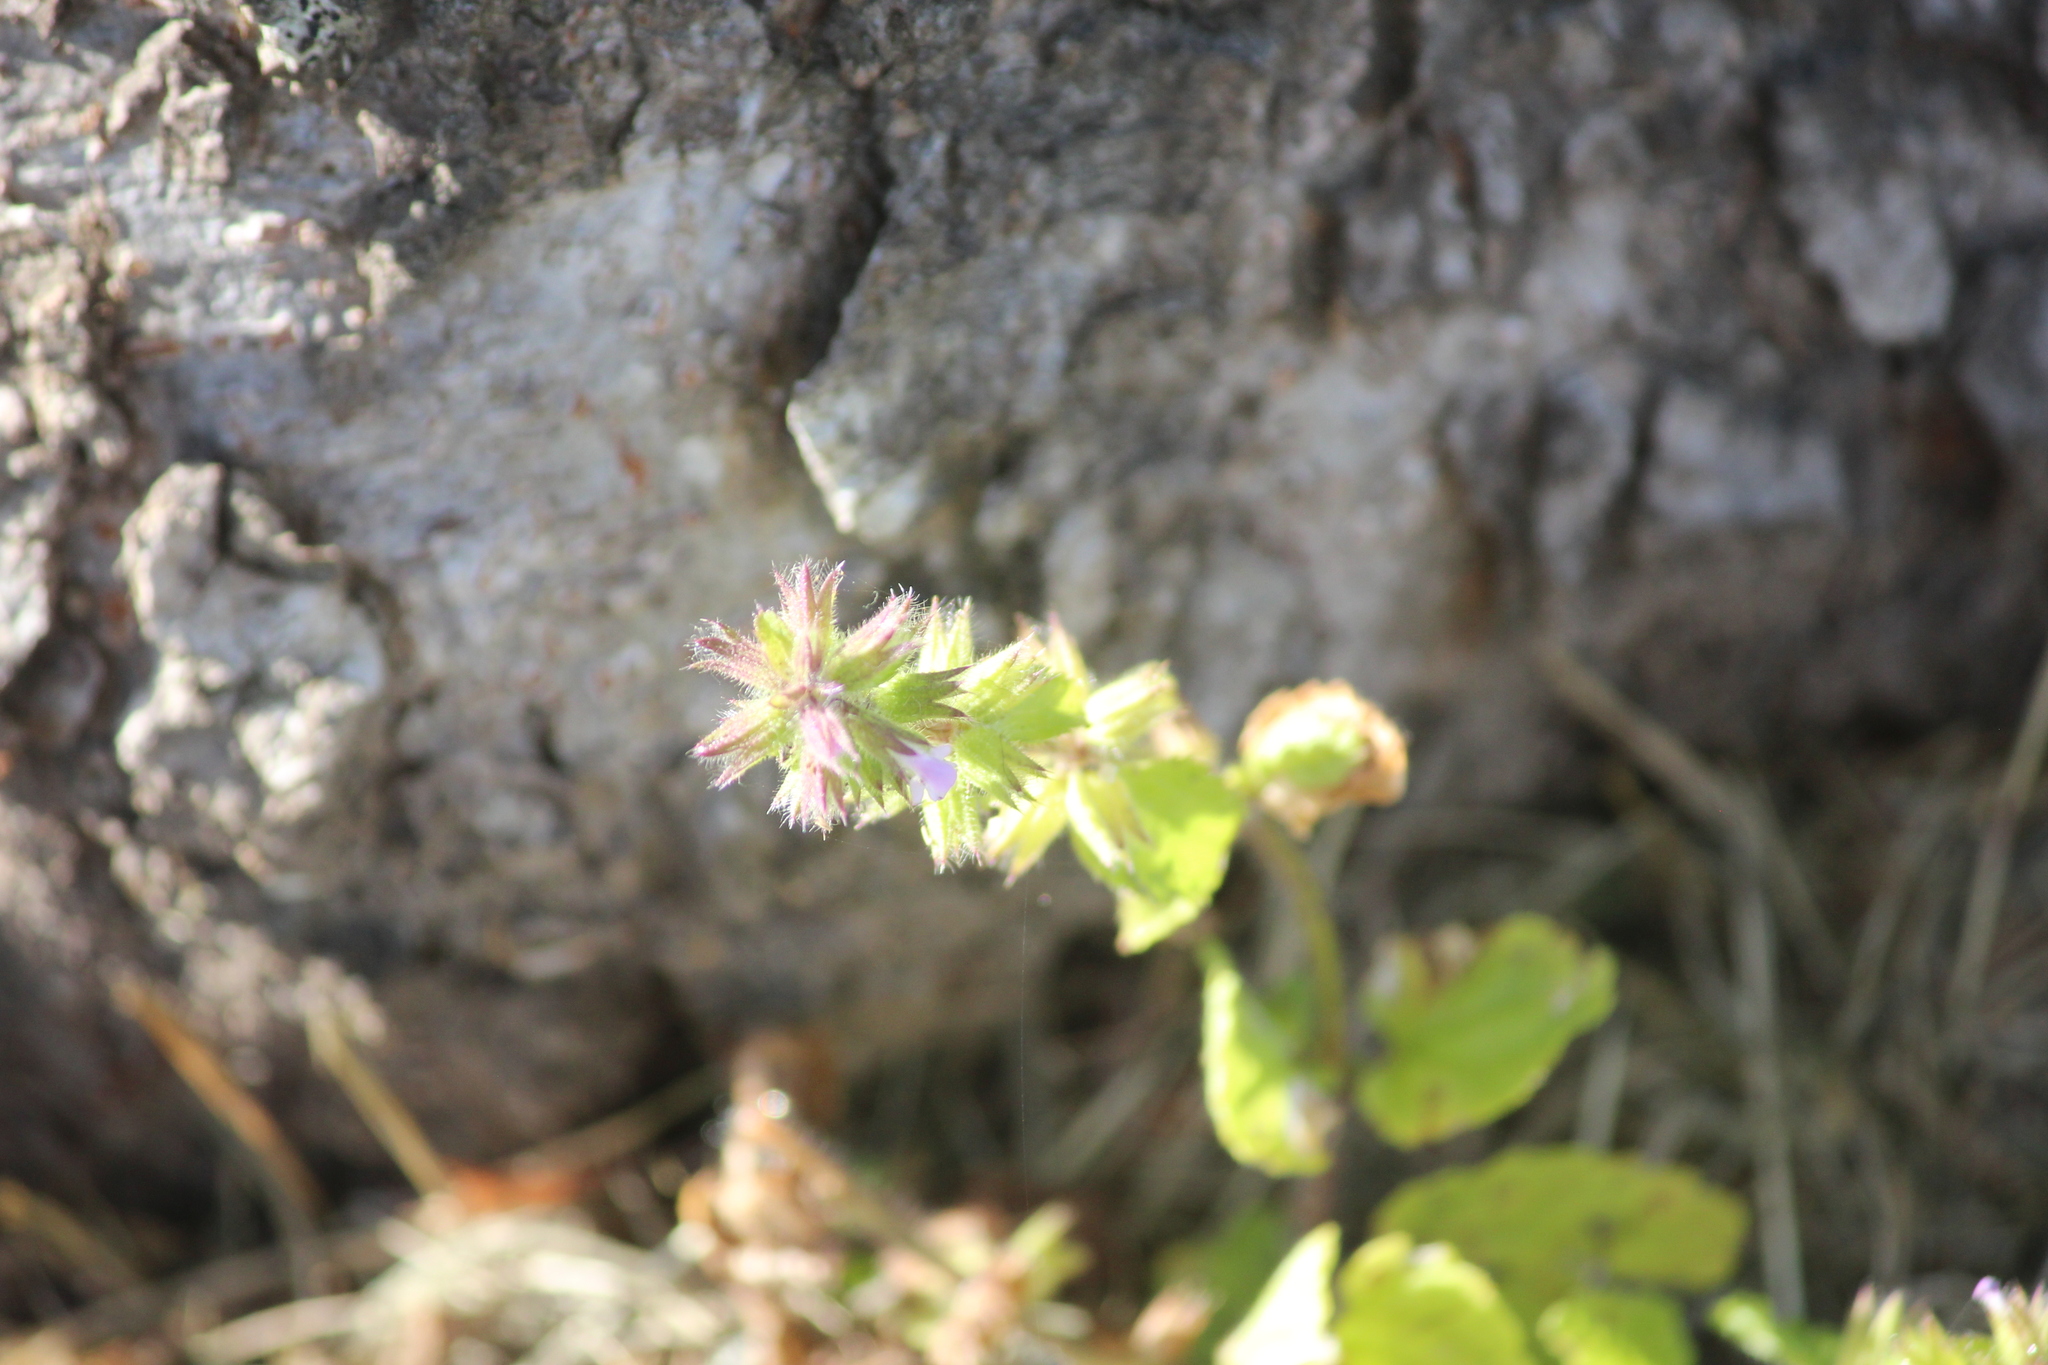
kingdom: Plantae
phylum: Tracheophyta
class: Magnoliopsida
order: Lamiales
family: Lamiaceae
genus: Stachys
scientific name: Stachys arvensis
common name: Field woundwort
